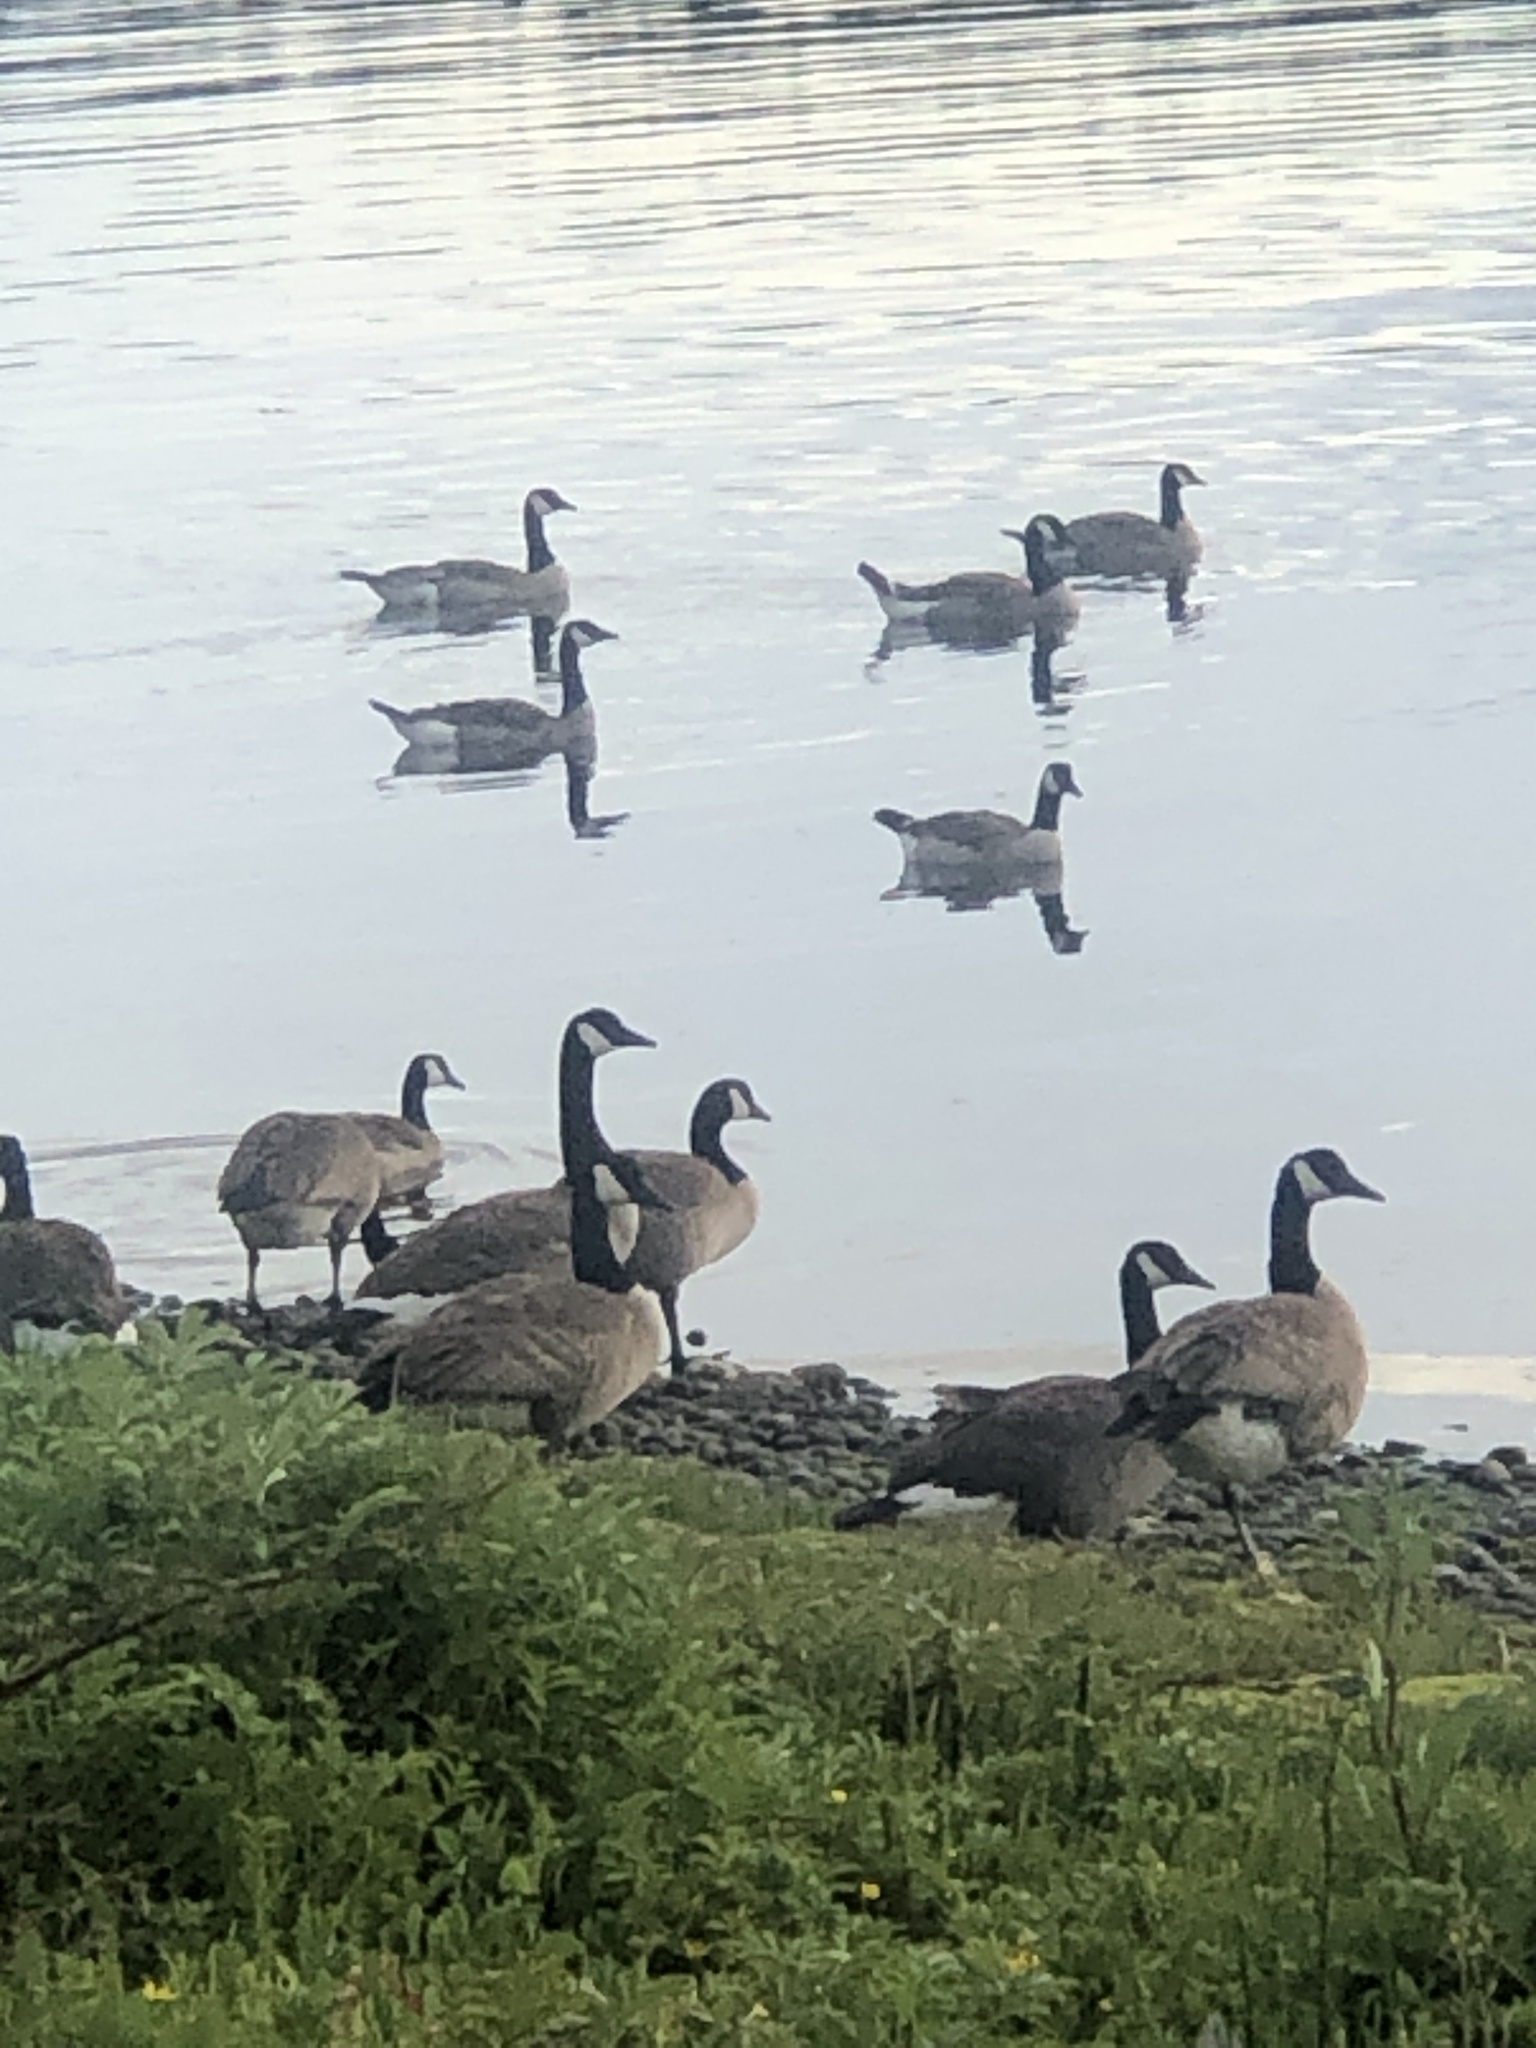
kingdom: Animalia
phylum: Chordata
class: Aves
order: Anseriformes
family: Anatidae
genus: Branta
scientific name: Branta canadensis
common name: Canada goose
